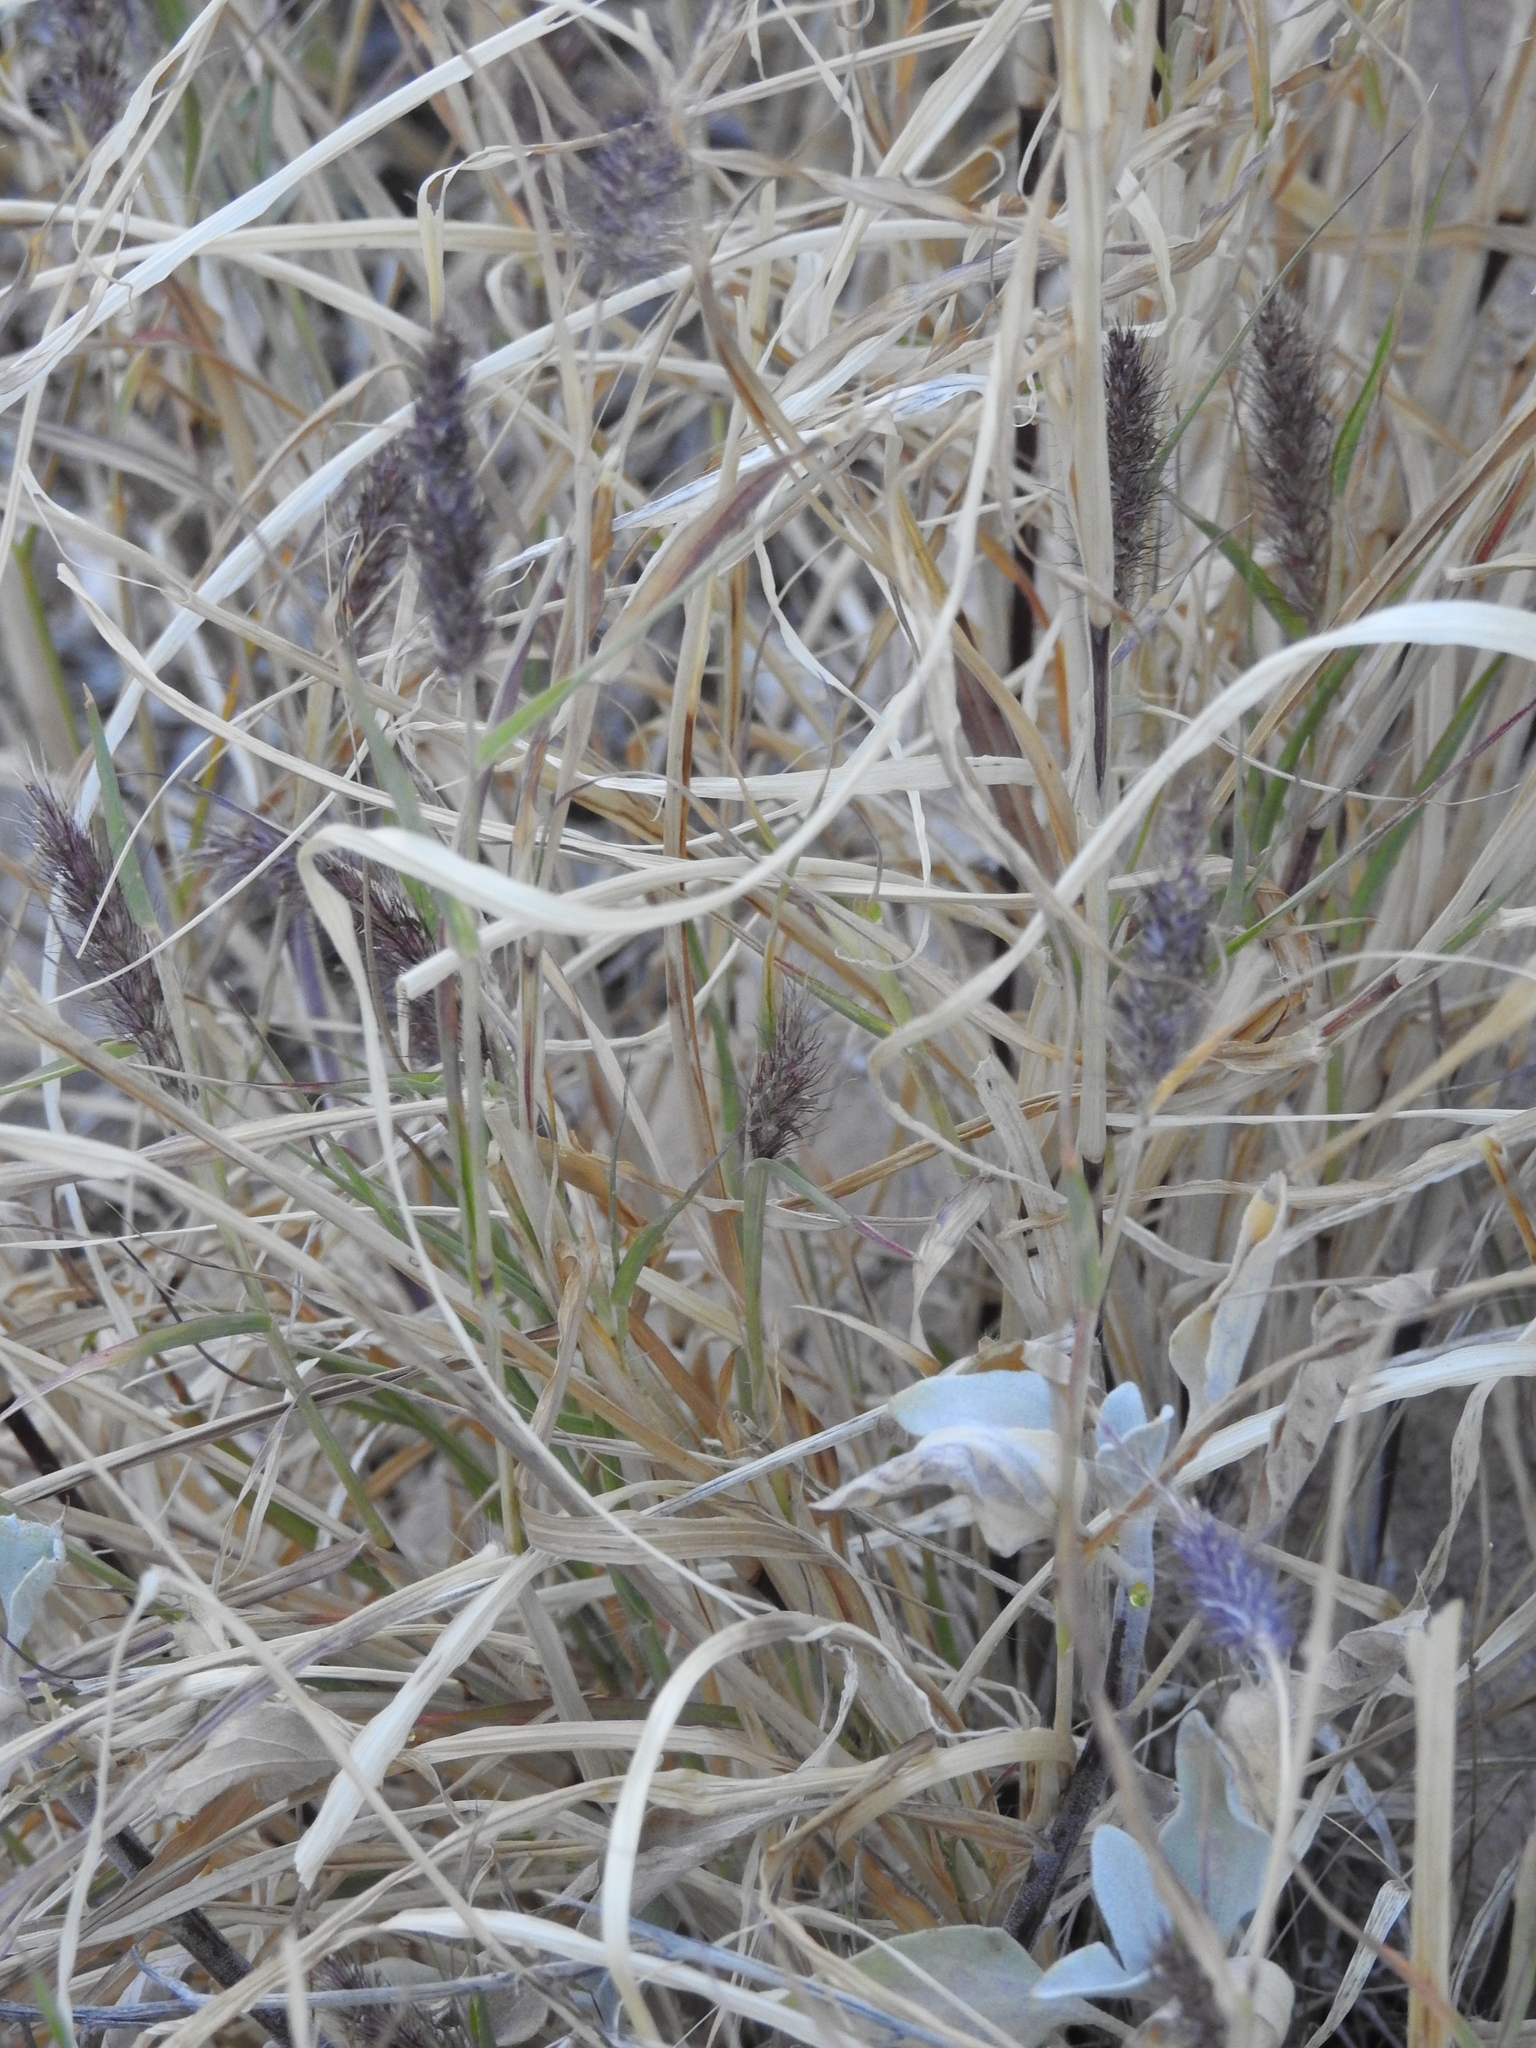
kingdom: Plantae
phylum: Tracheophyta
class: Liliopsida
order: Poales
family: Poaceae
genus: Cenchrus
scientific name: Cenchrus ciliaris
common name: Buffelgrass
